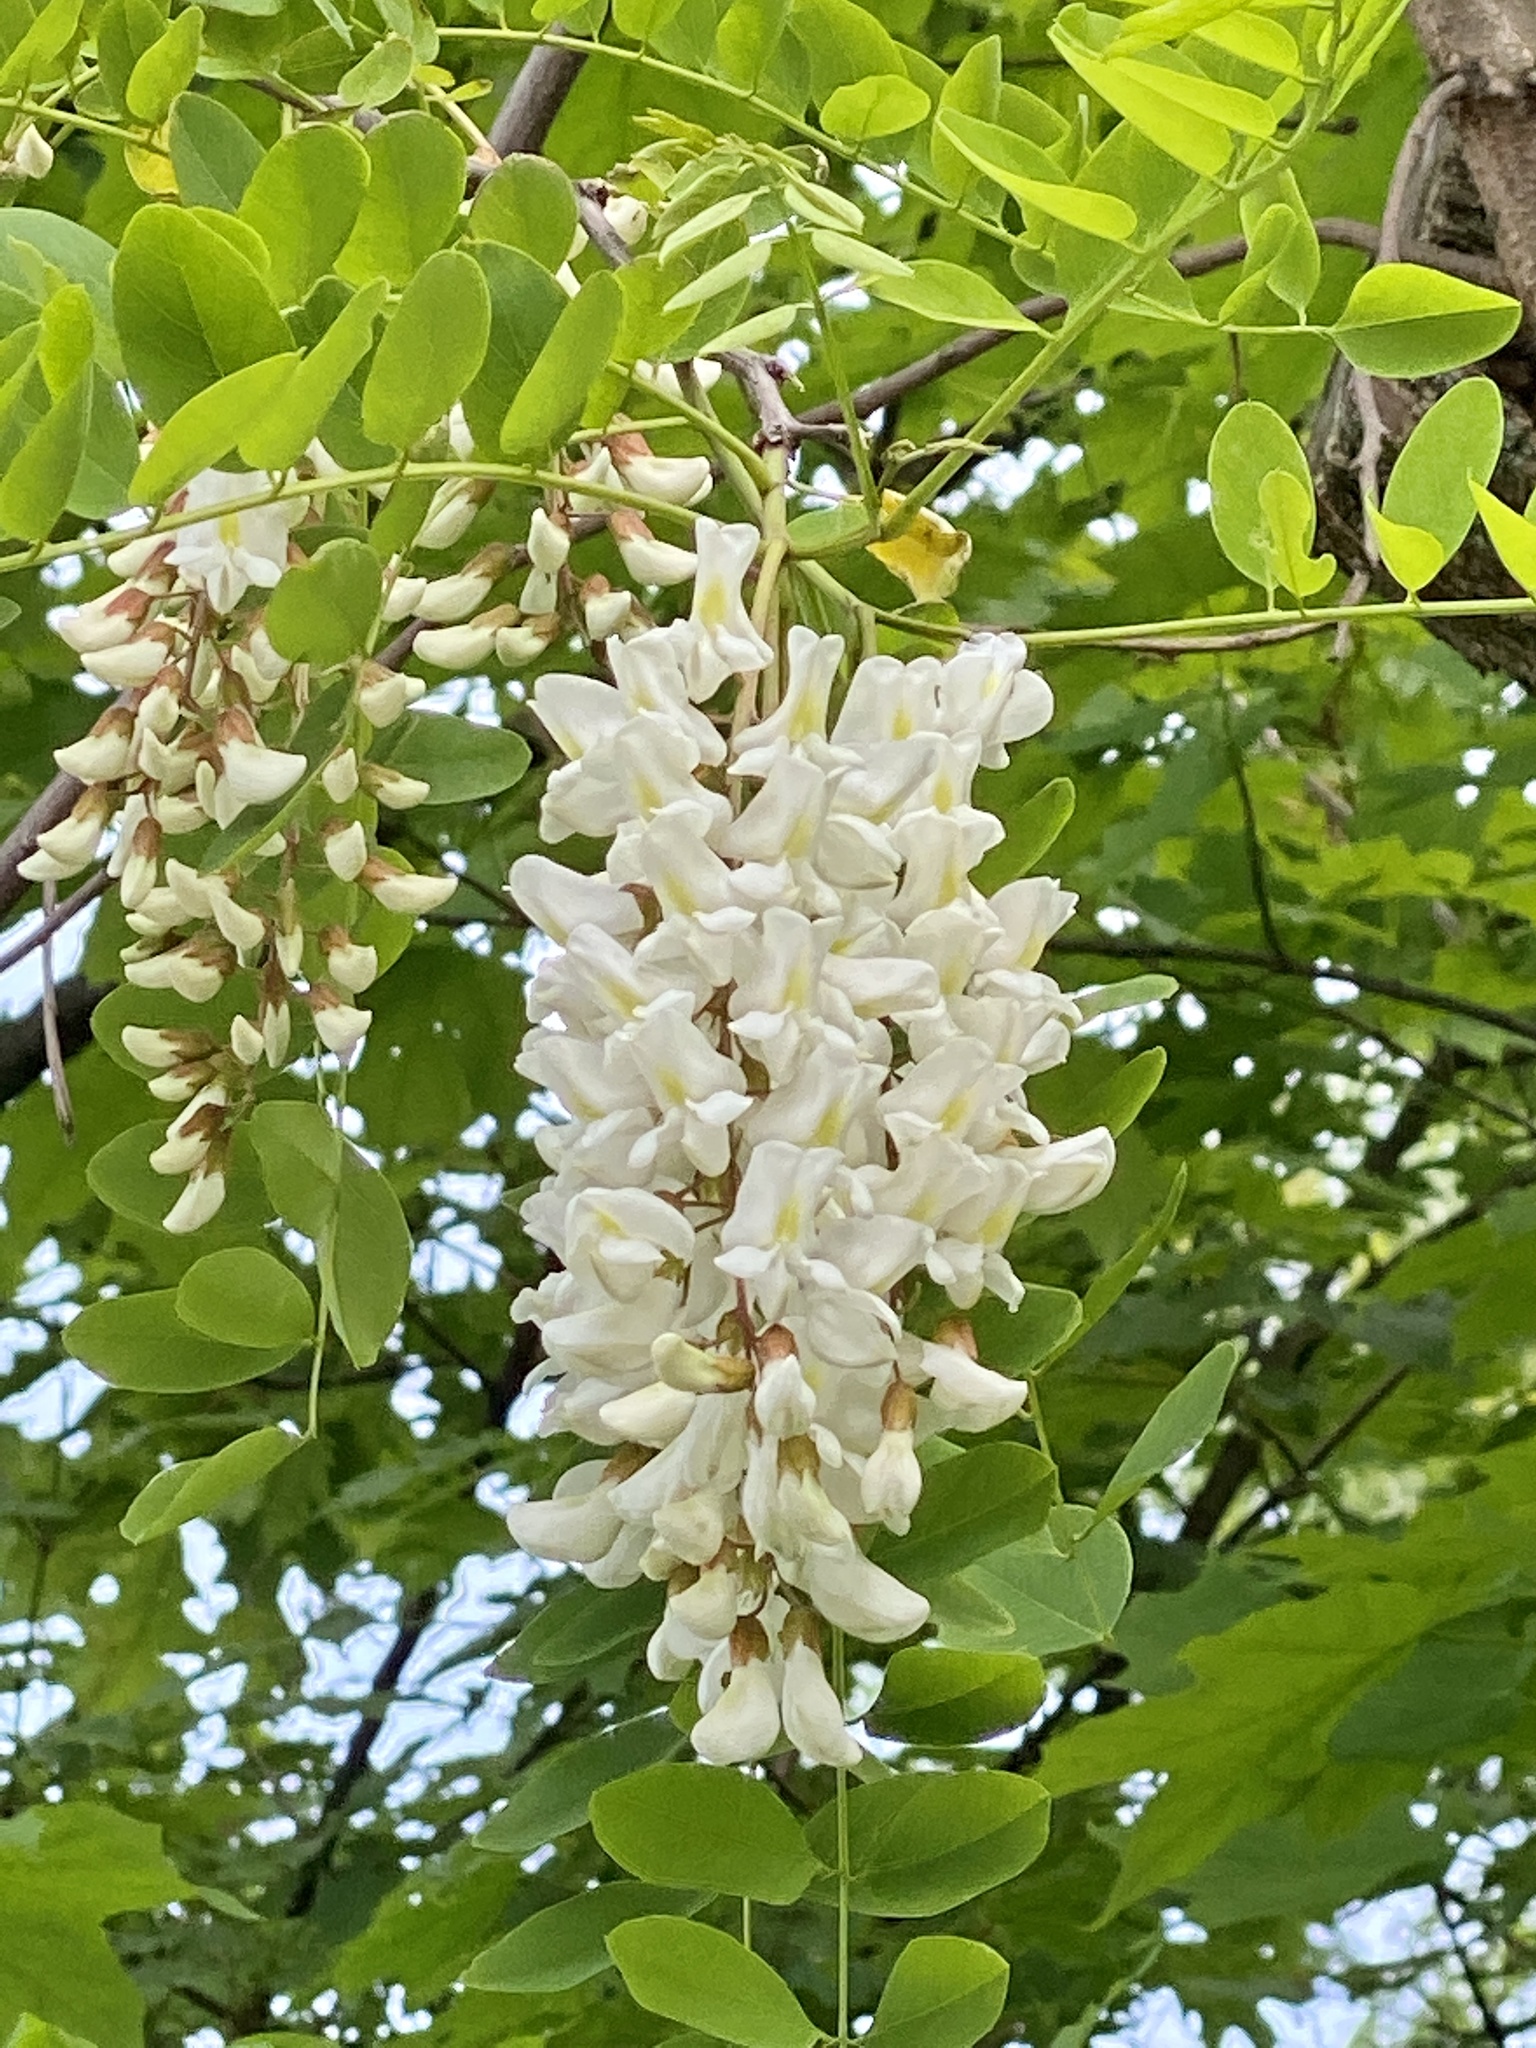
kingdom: Plantae
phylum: Tracheophyta
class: Magnoliopsida
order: Fabales
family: Fabaceae
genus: Robinia
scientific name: Robinia pseudoacacia
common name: Black locust
